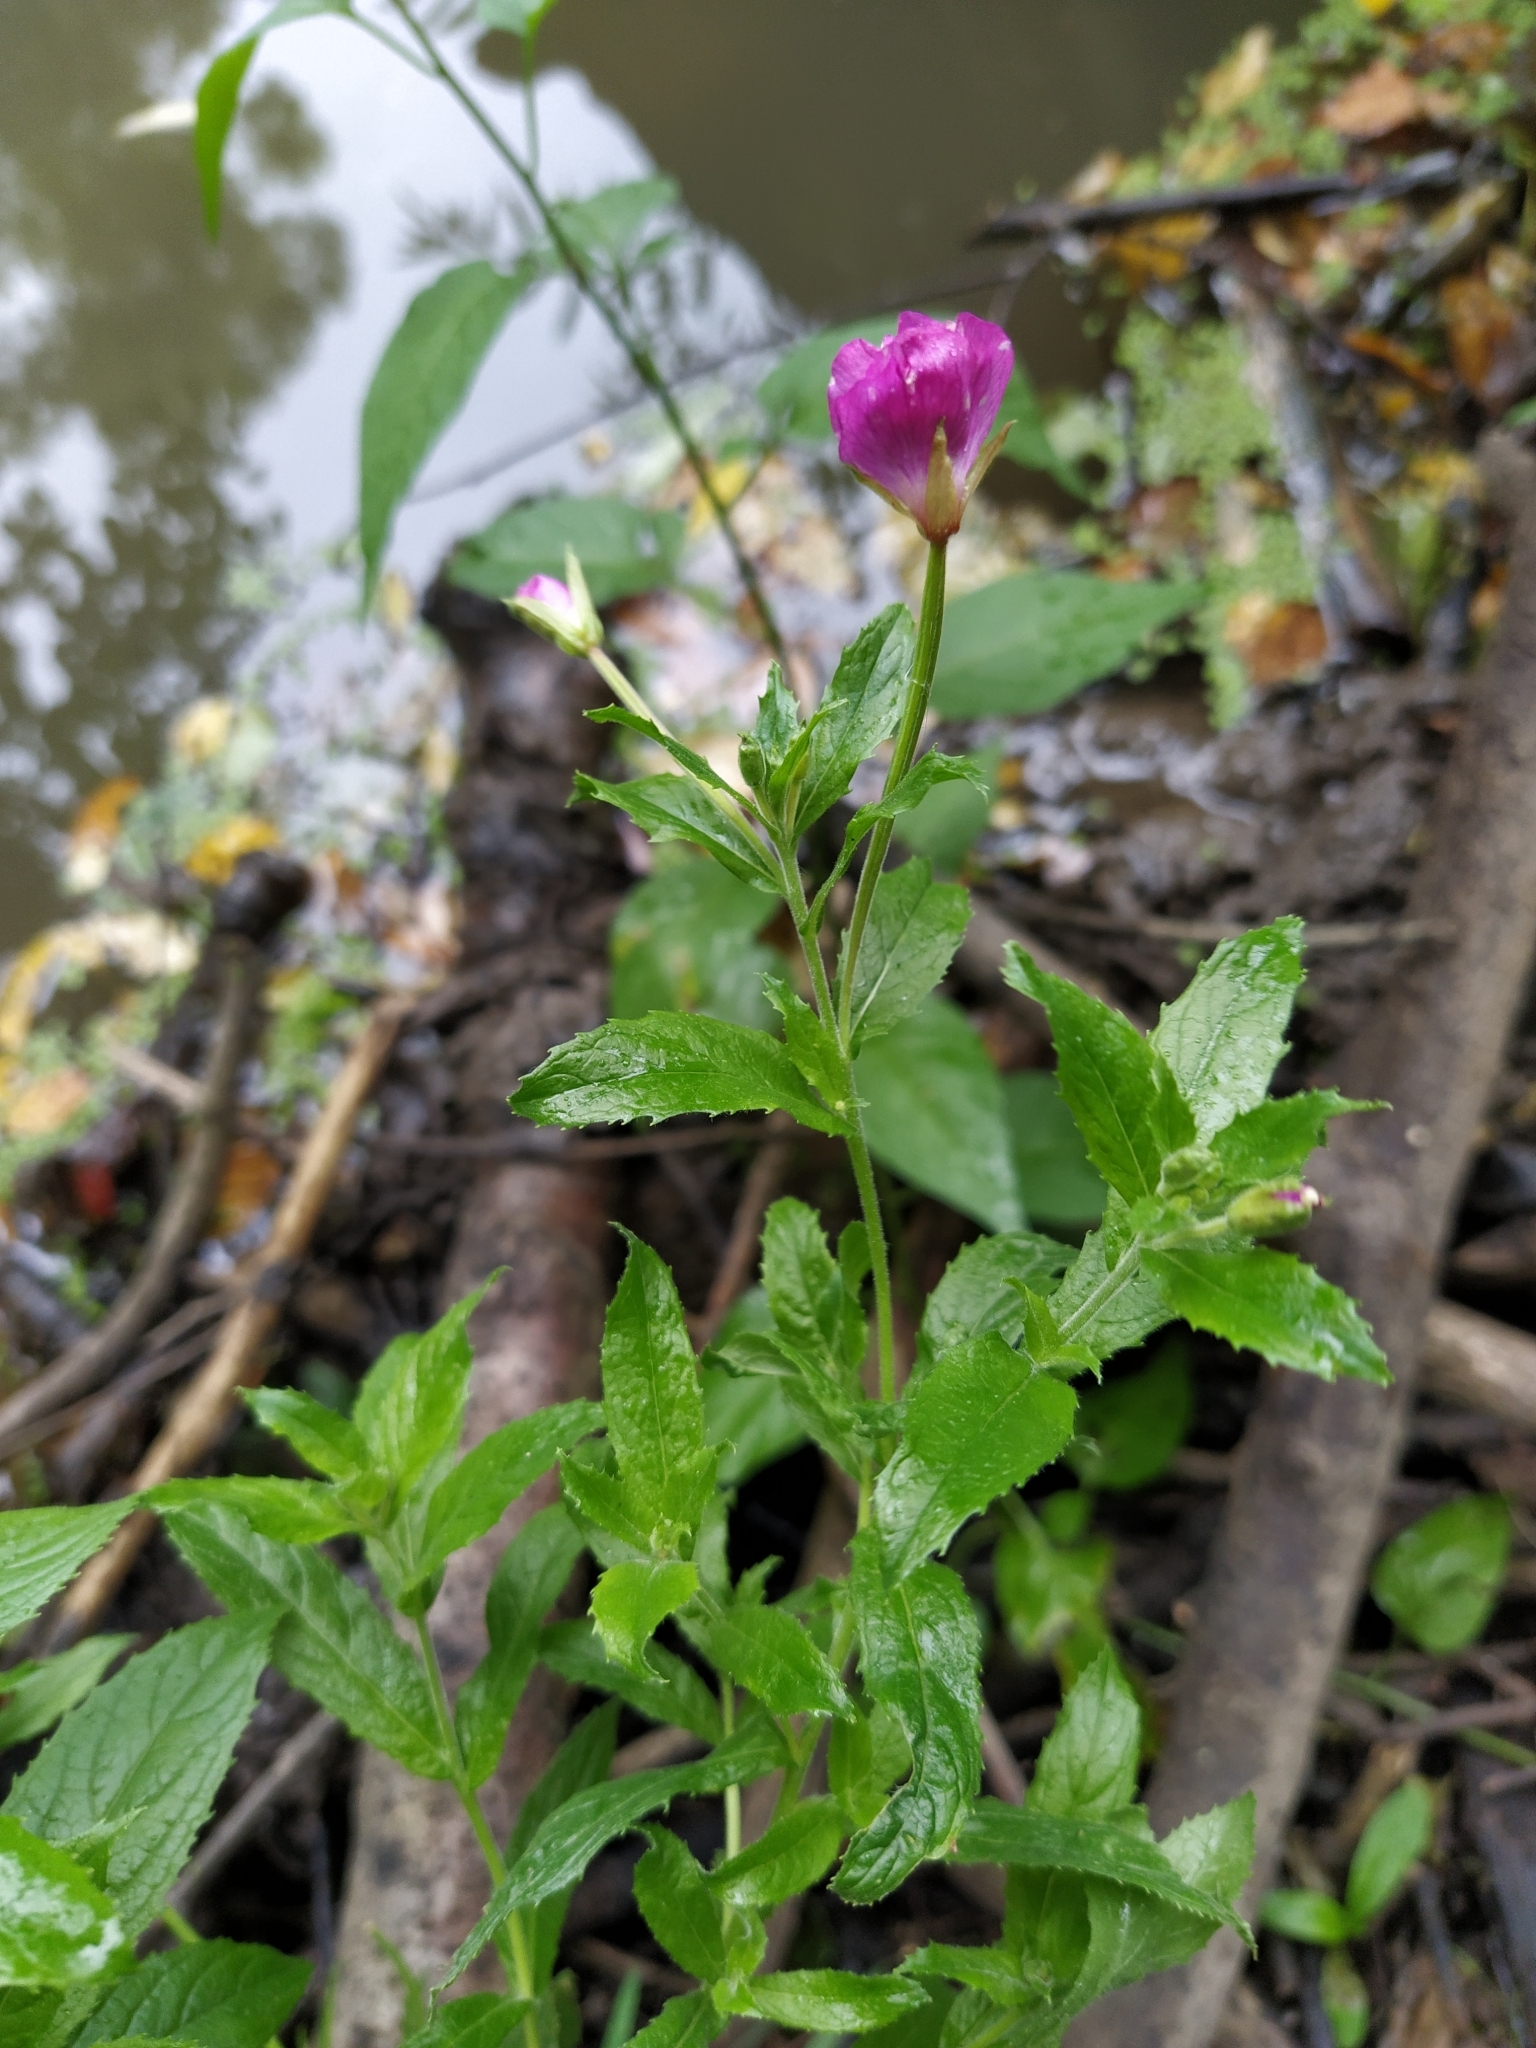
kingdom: Plantae
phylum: Tracheophyta
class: Magnoliopsida
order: Myrtales
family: Onagraceae
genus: Epilobium
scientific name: Epilobium hirsutum
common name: Great willowherb
